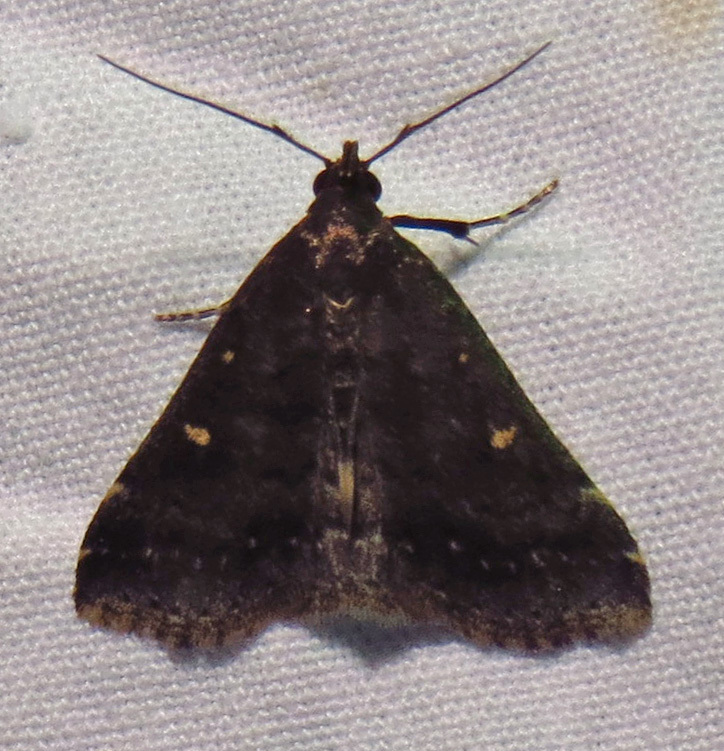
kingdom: Animalia
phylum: Arthropoda
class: Insecta
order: Lepidoptera
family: Erebidae
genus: Tetanolita
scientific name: Tetanolita mynesalis
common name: Smoky tetanolita moth
